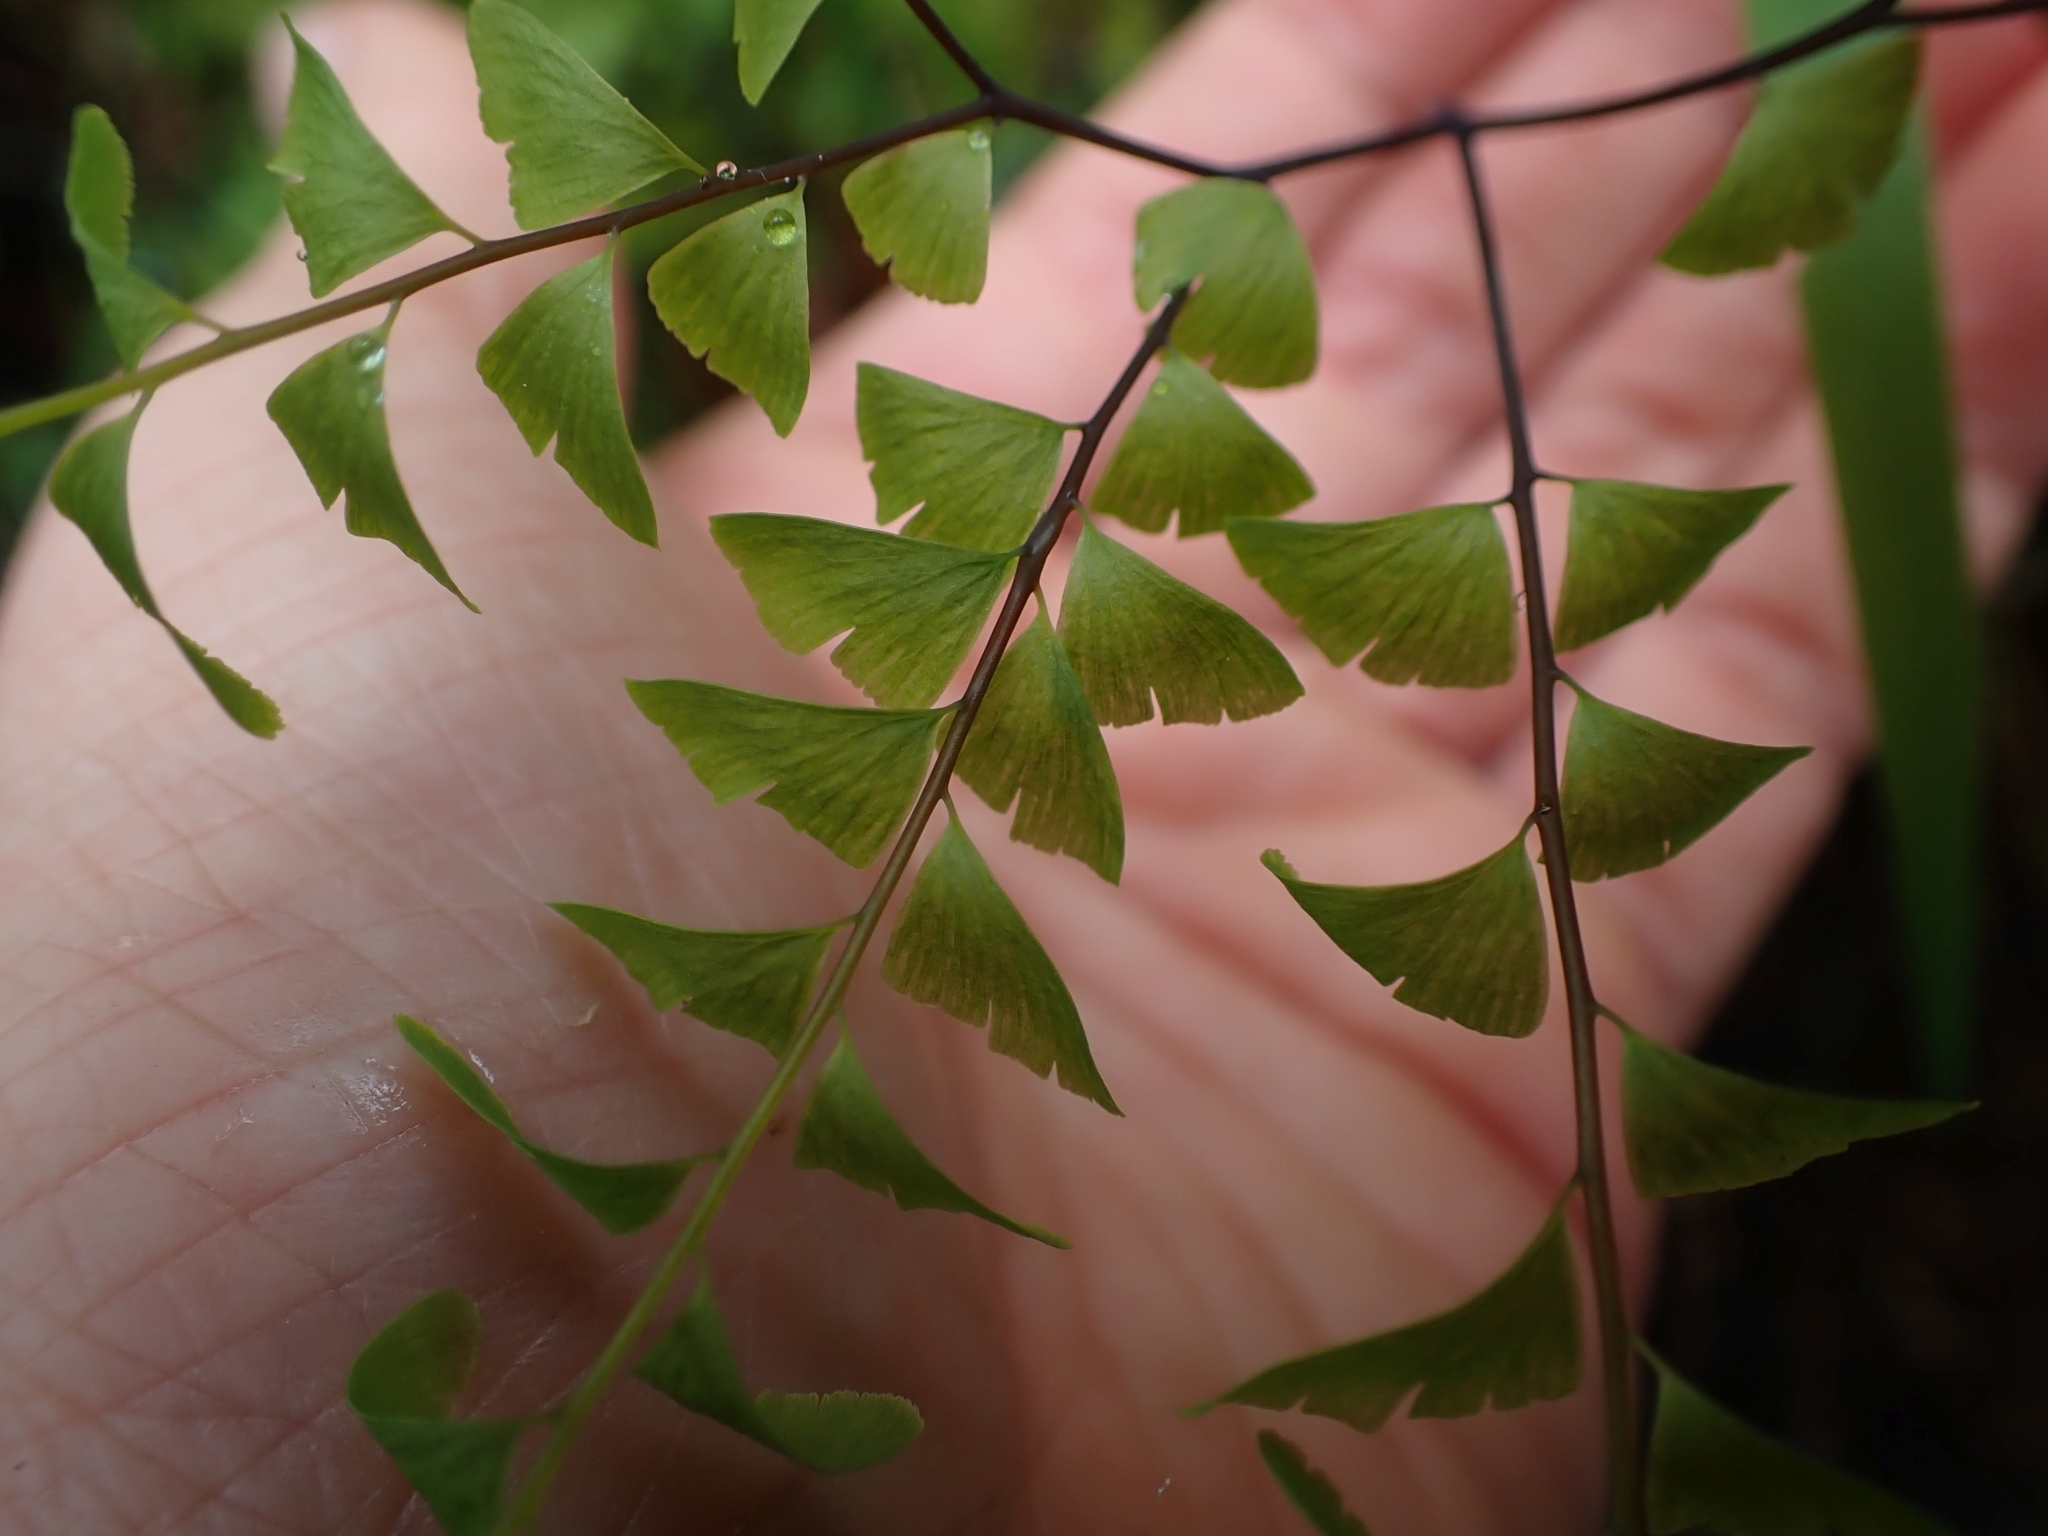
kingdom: Plantae
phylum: Tracheophyta
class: Polypodiopsida
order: Polypodiales
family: Pteridaceae
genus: Adiantum
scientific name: Adiantum aleuticum
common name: Aleutian maidenhair fern
